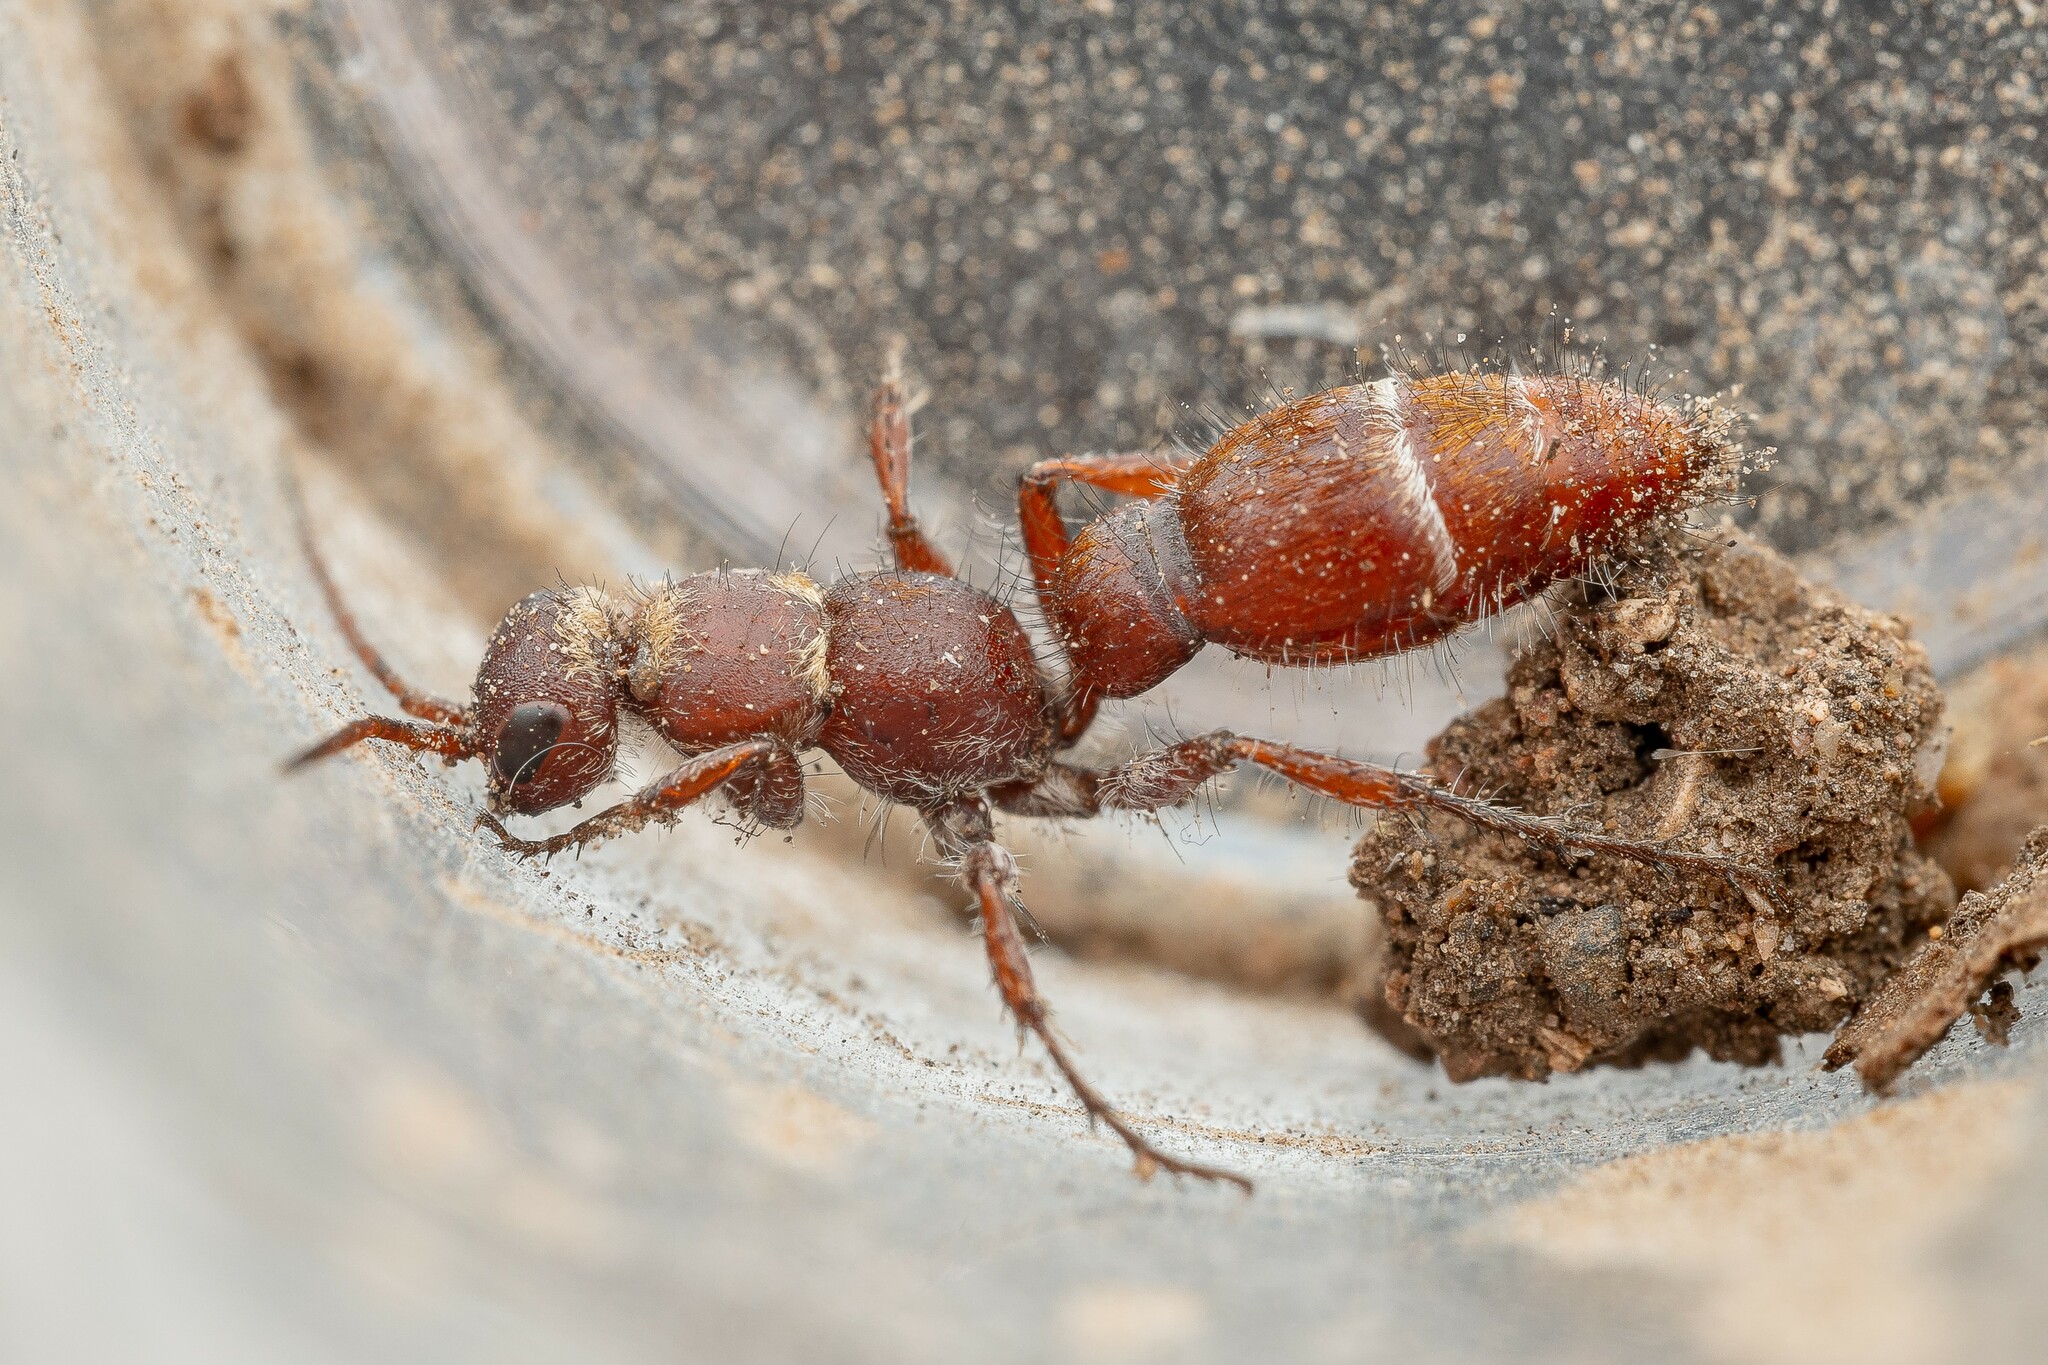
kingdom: Animalia
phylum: Arthropoda
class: Insecta
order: Hymenoptera
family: Mutillidae
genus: Typhoctes
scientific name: Typhoctes
